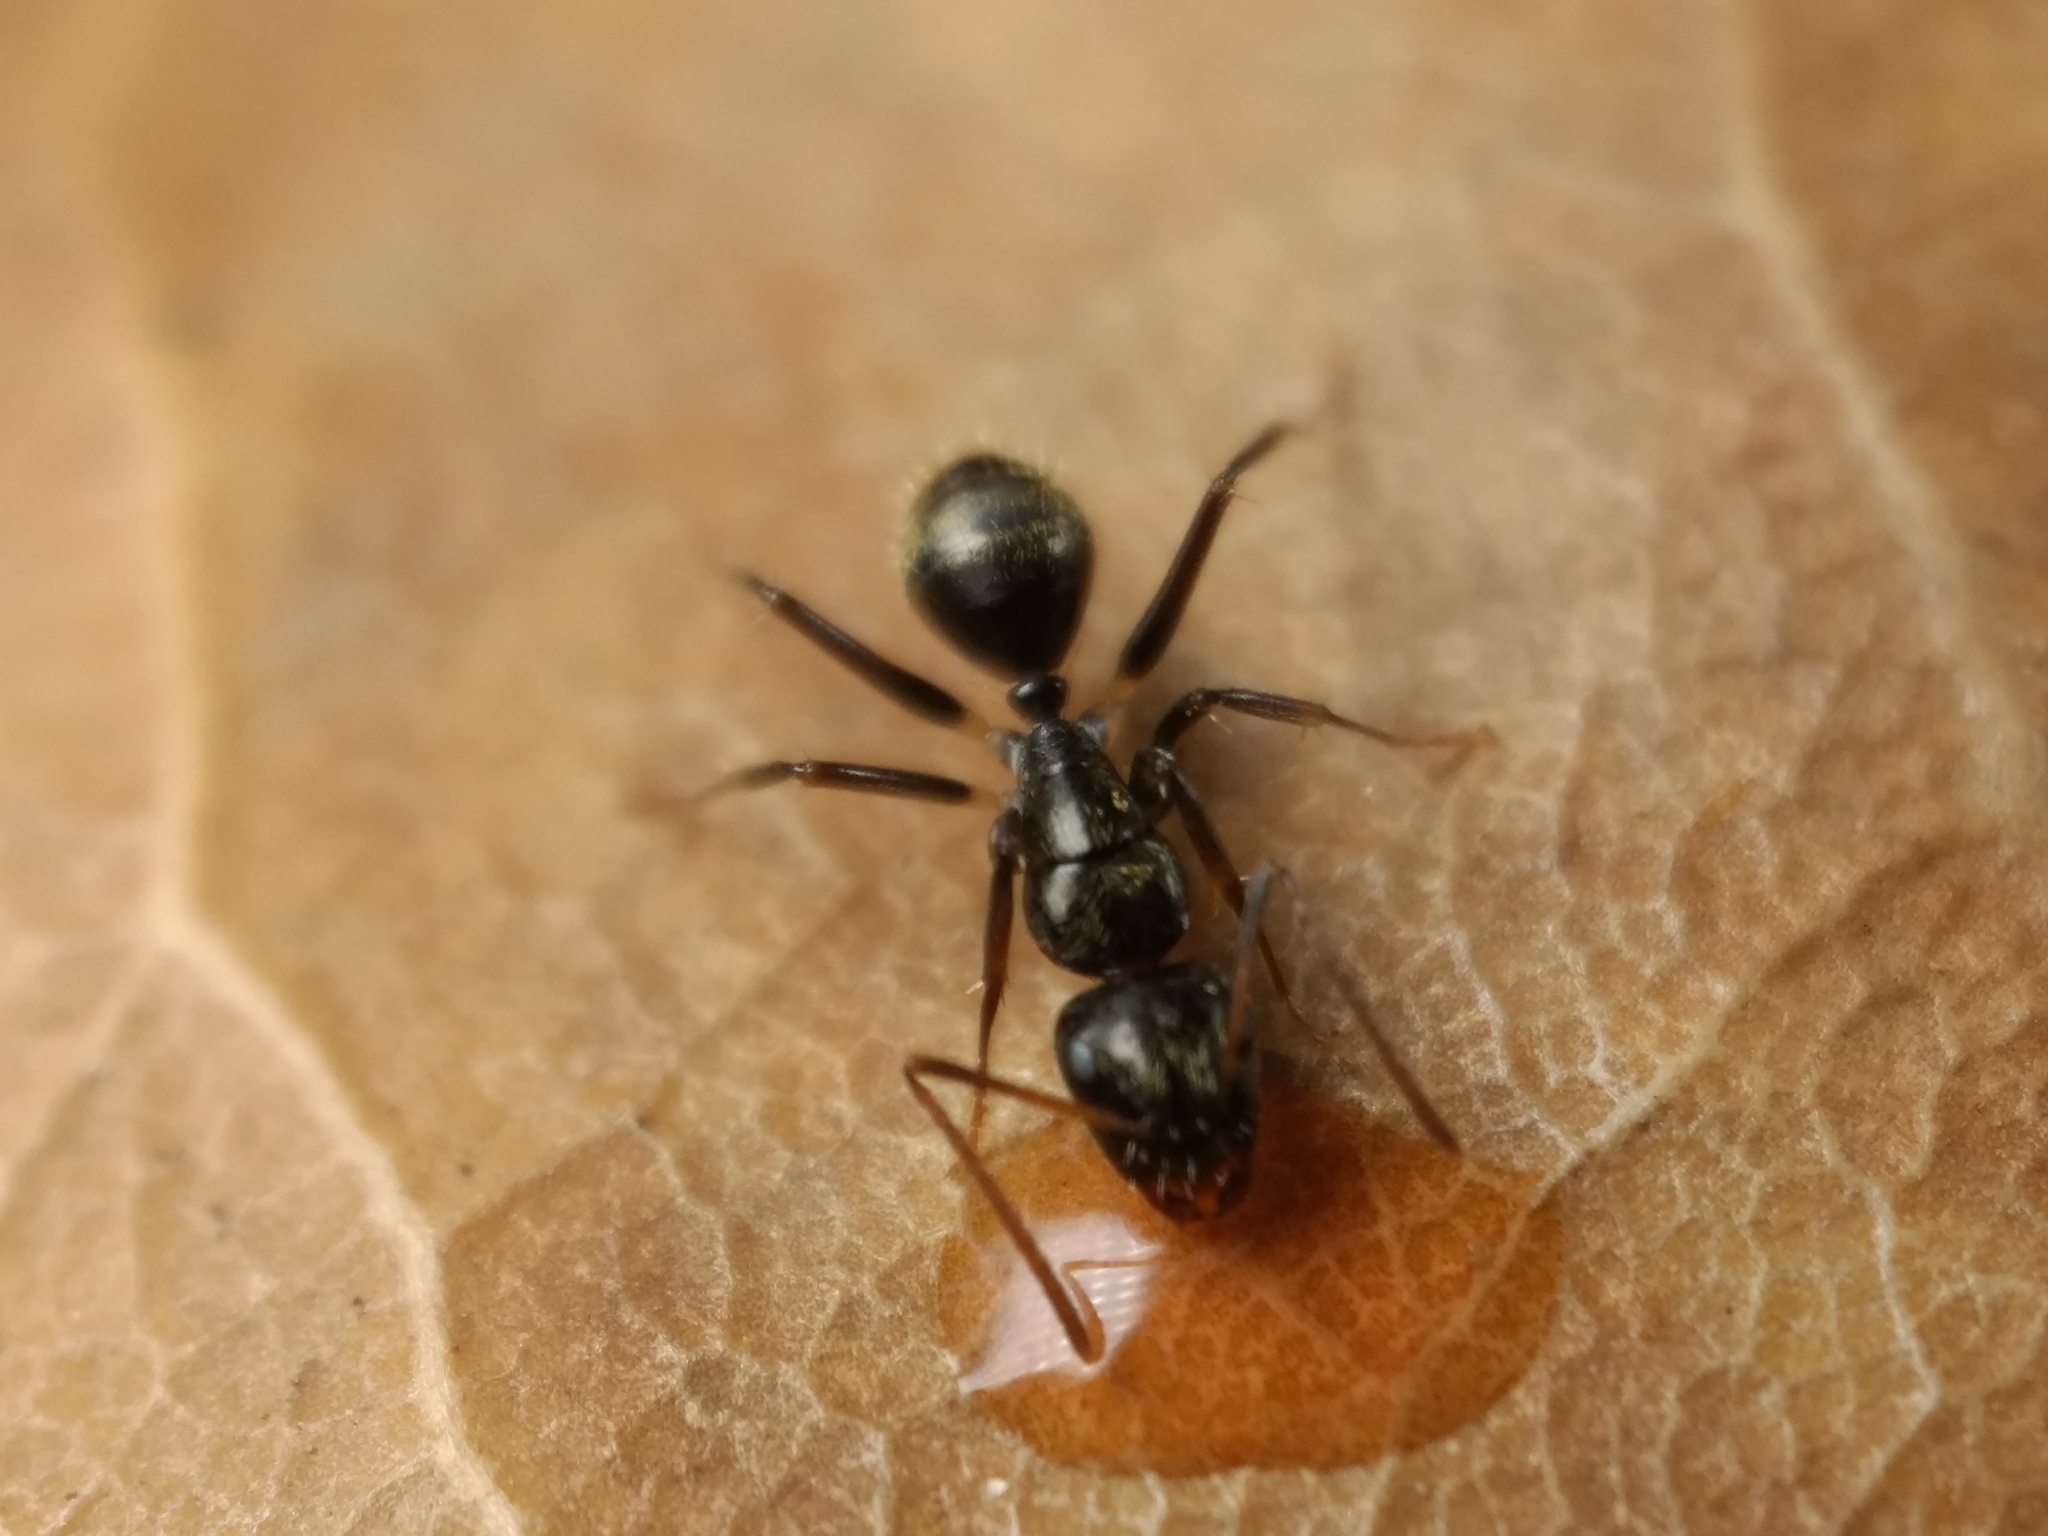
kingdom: Animalia
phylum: Arthropoda
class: Insecta
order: Hymenoptera
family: Formicidae
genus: Camponotus
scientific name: Camponotus froggatti
